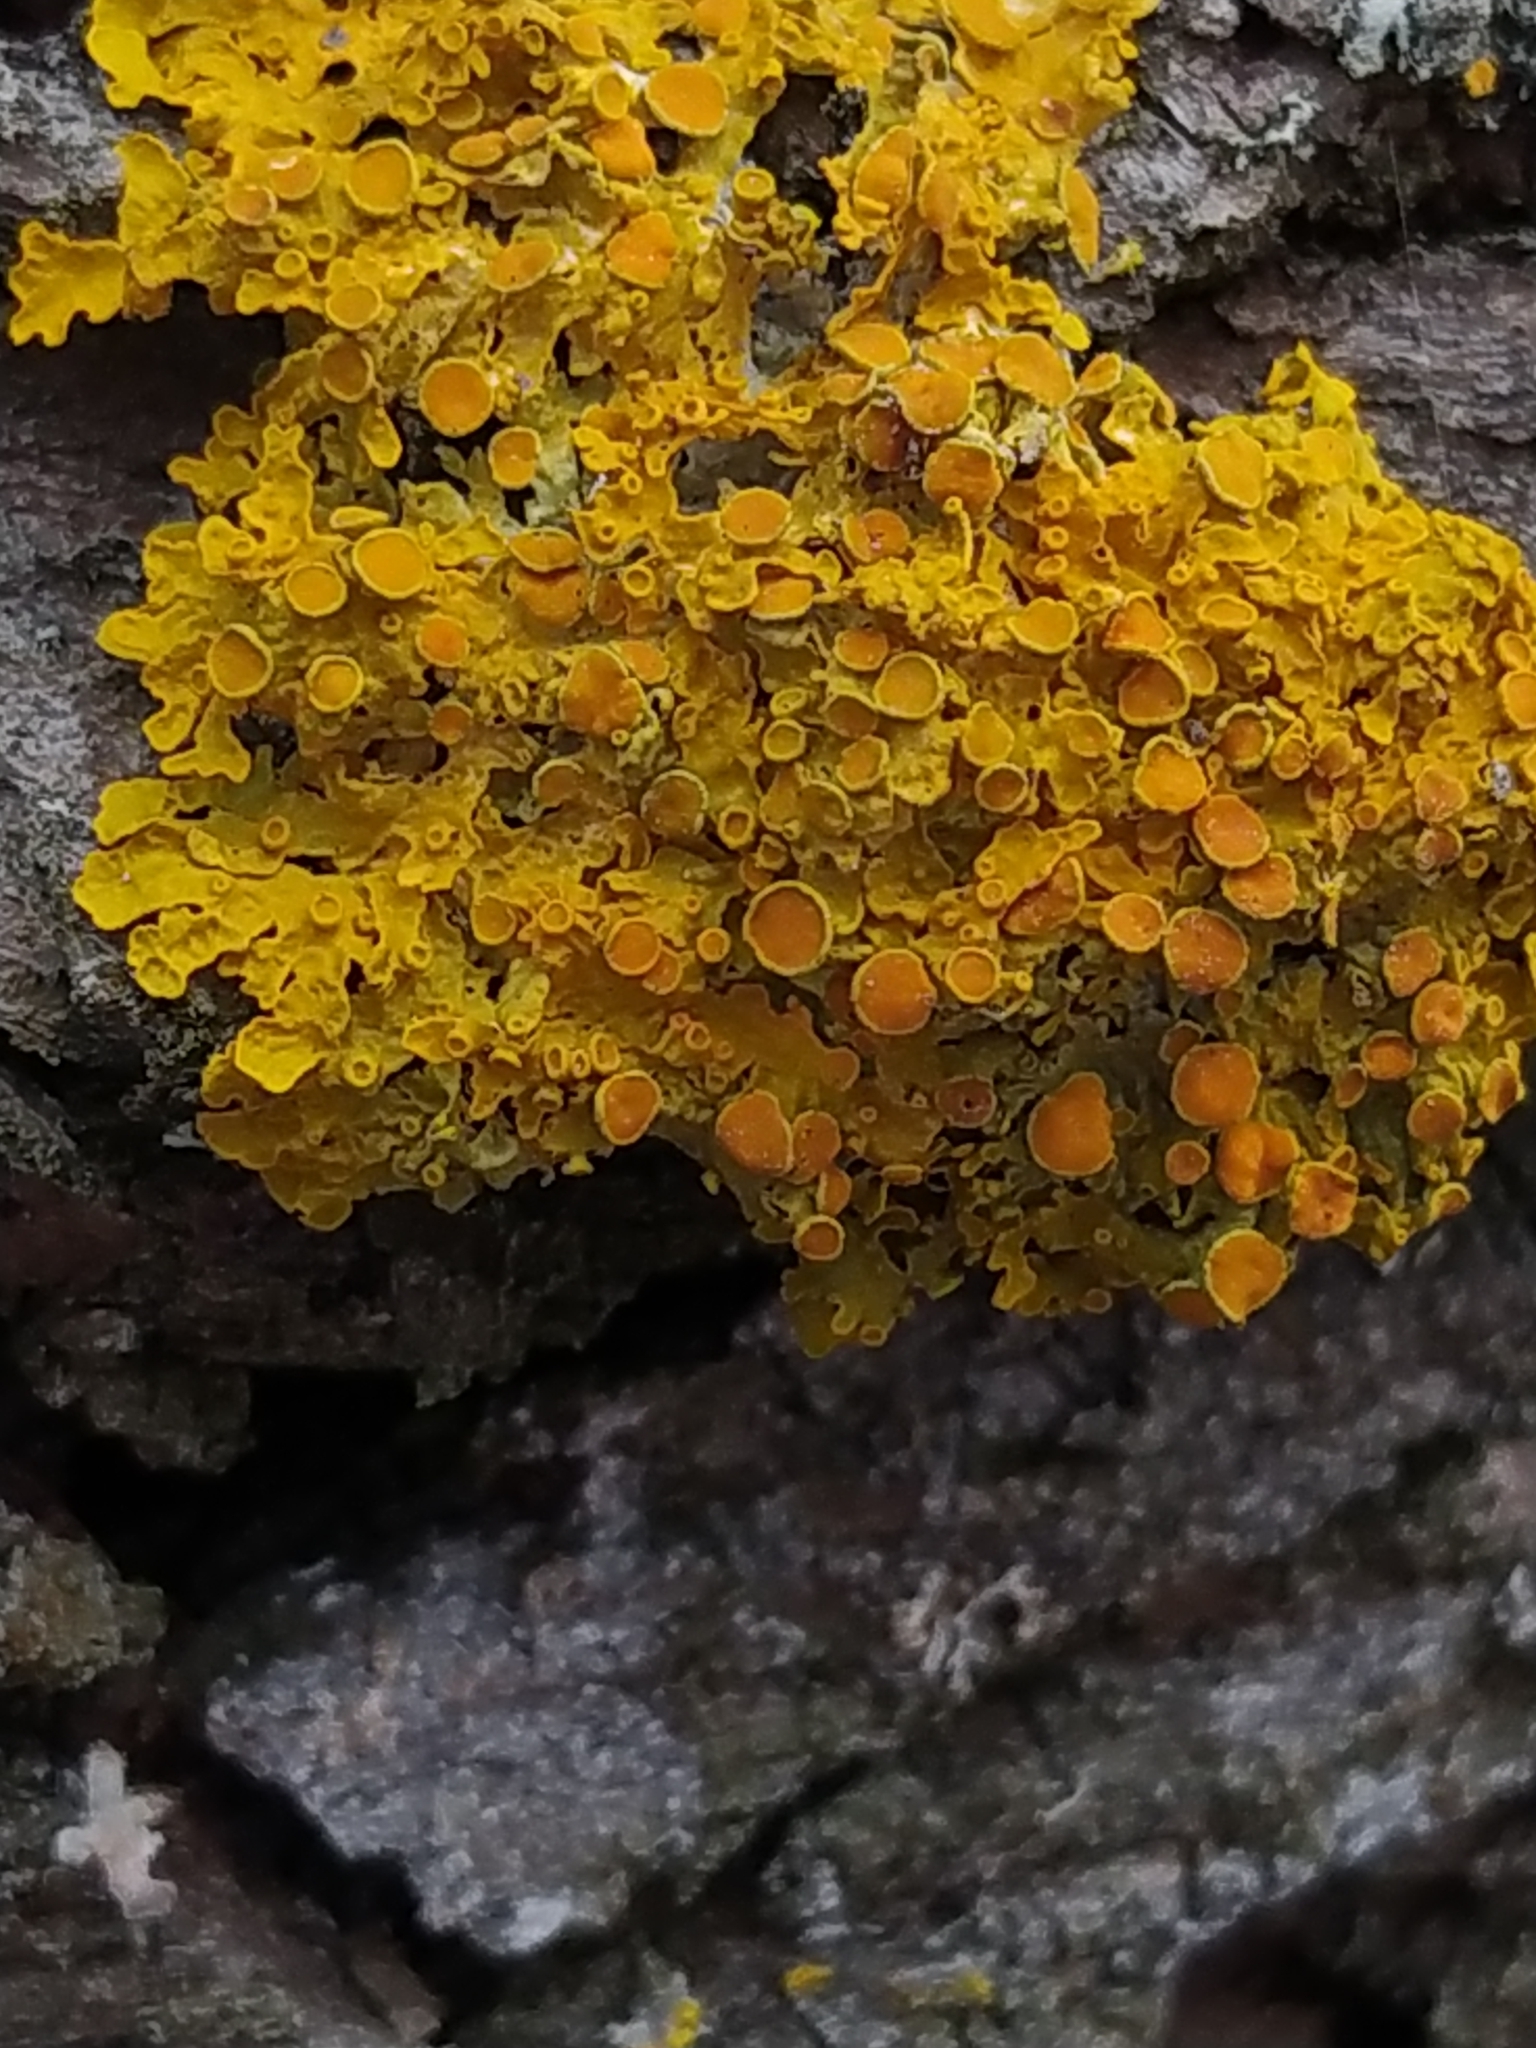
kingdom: Fungi
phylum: Ascomycota
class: Lecanoromycetes
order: Teloschistales
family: Teloschistaceae
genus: Xanthoria
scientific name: Xanthoria parietina
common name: Common orange lichen
